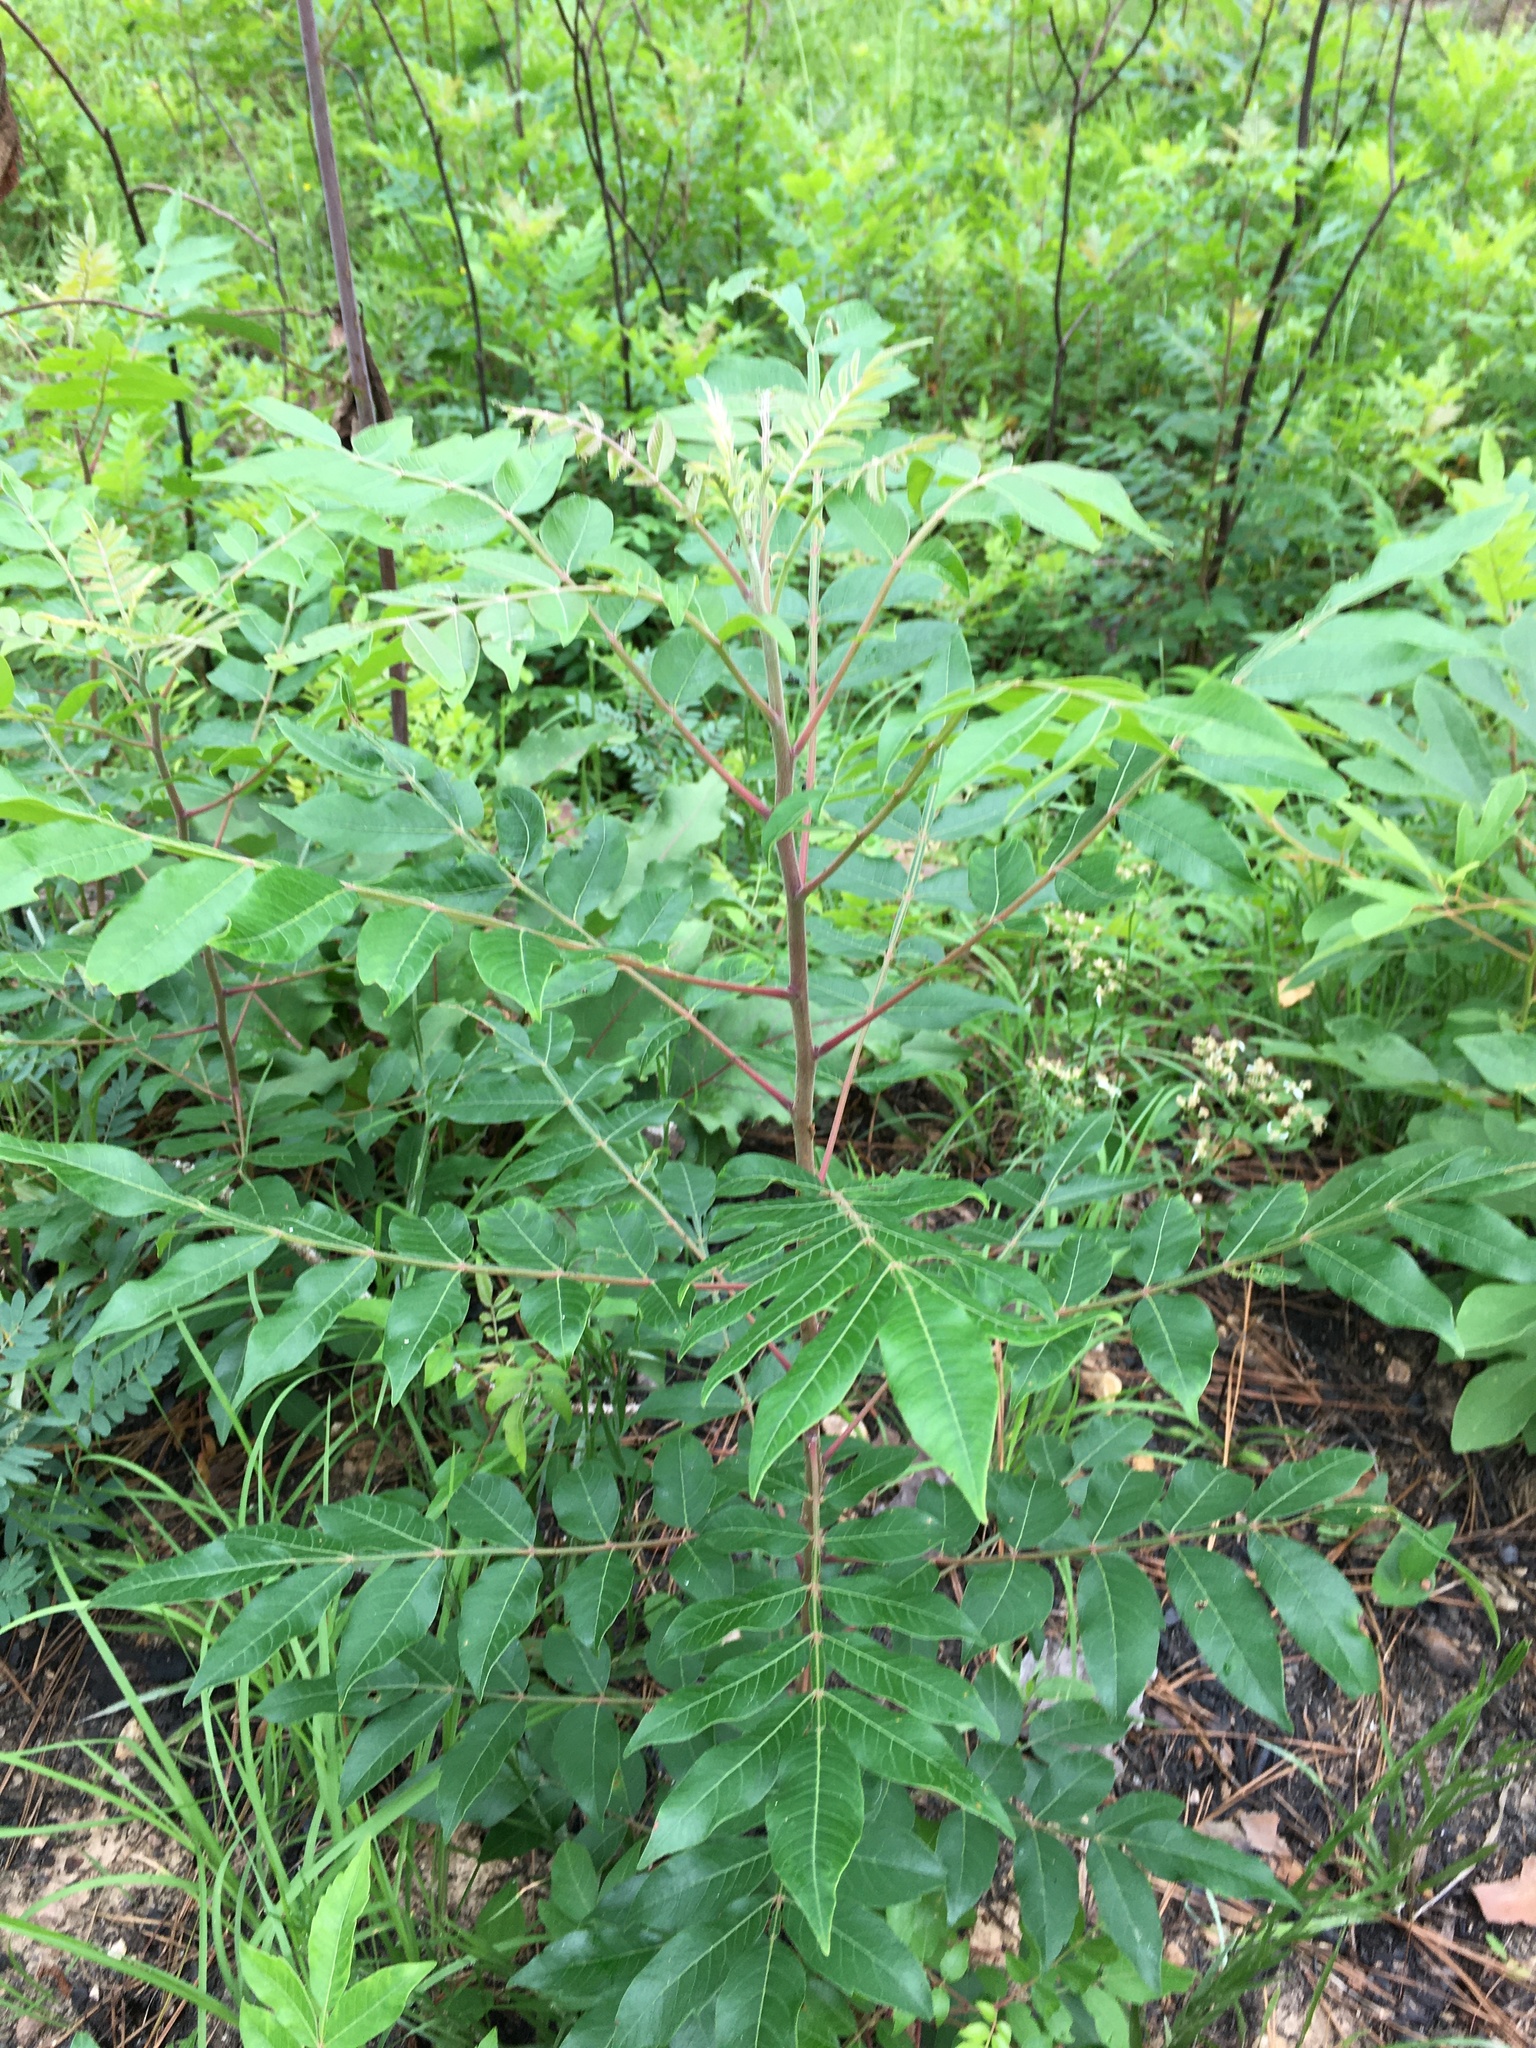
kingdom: Plantae
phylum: Tracheophyta
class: Magnoliopsida
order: Sapindales
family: Anacardiaceae
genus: Rhus
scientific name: Rhus copallina
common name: Shining sumac
